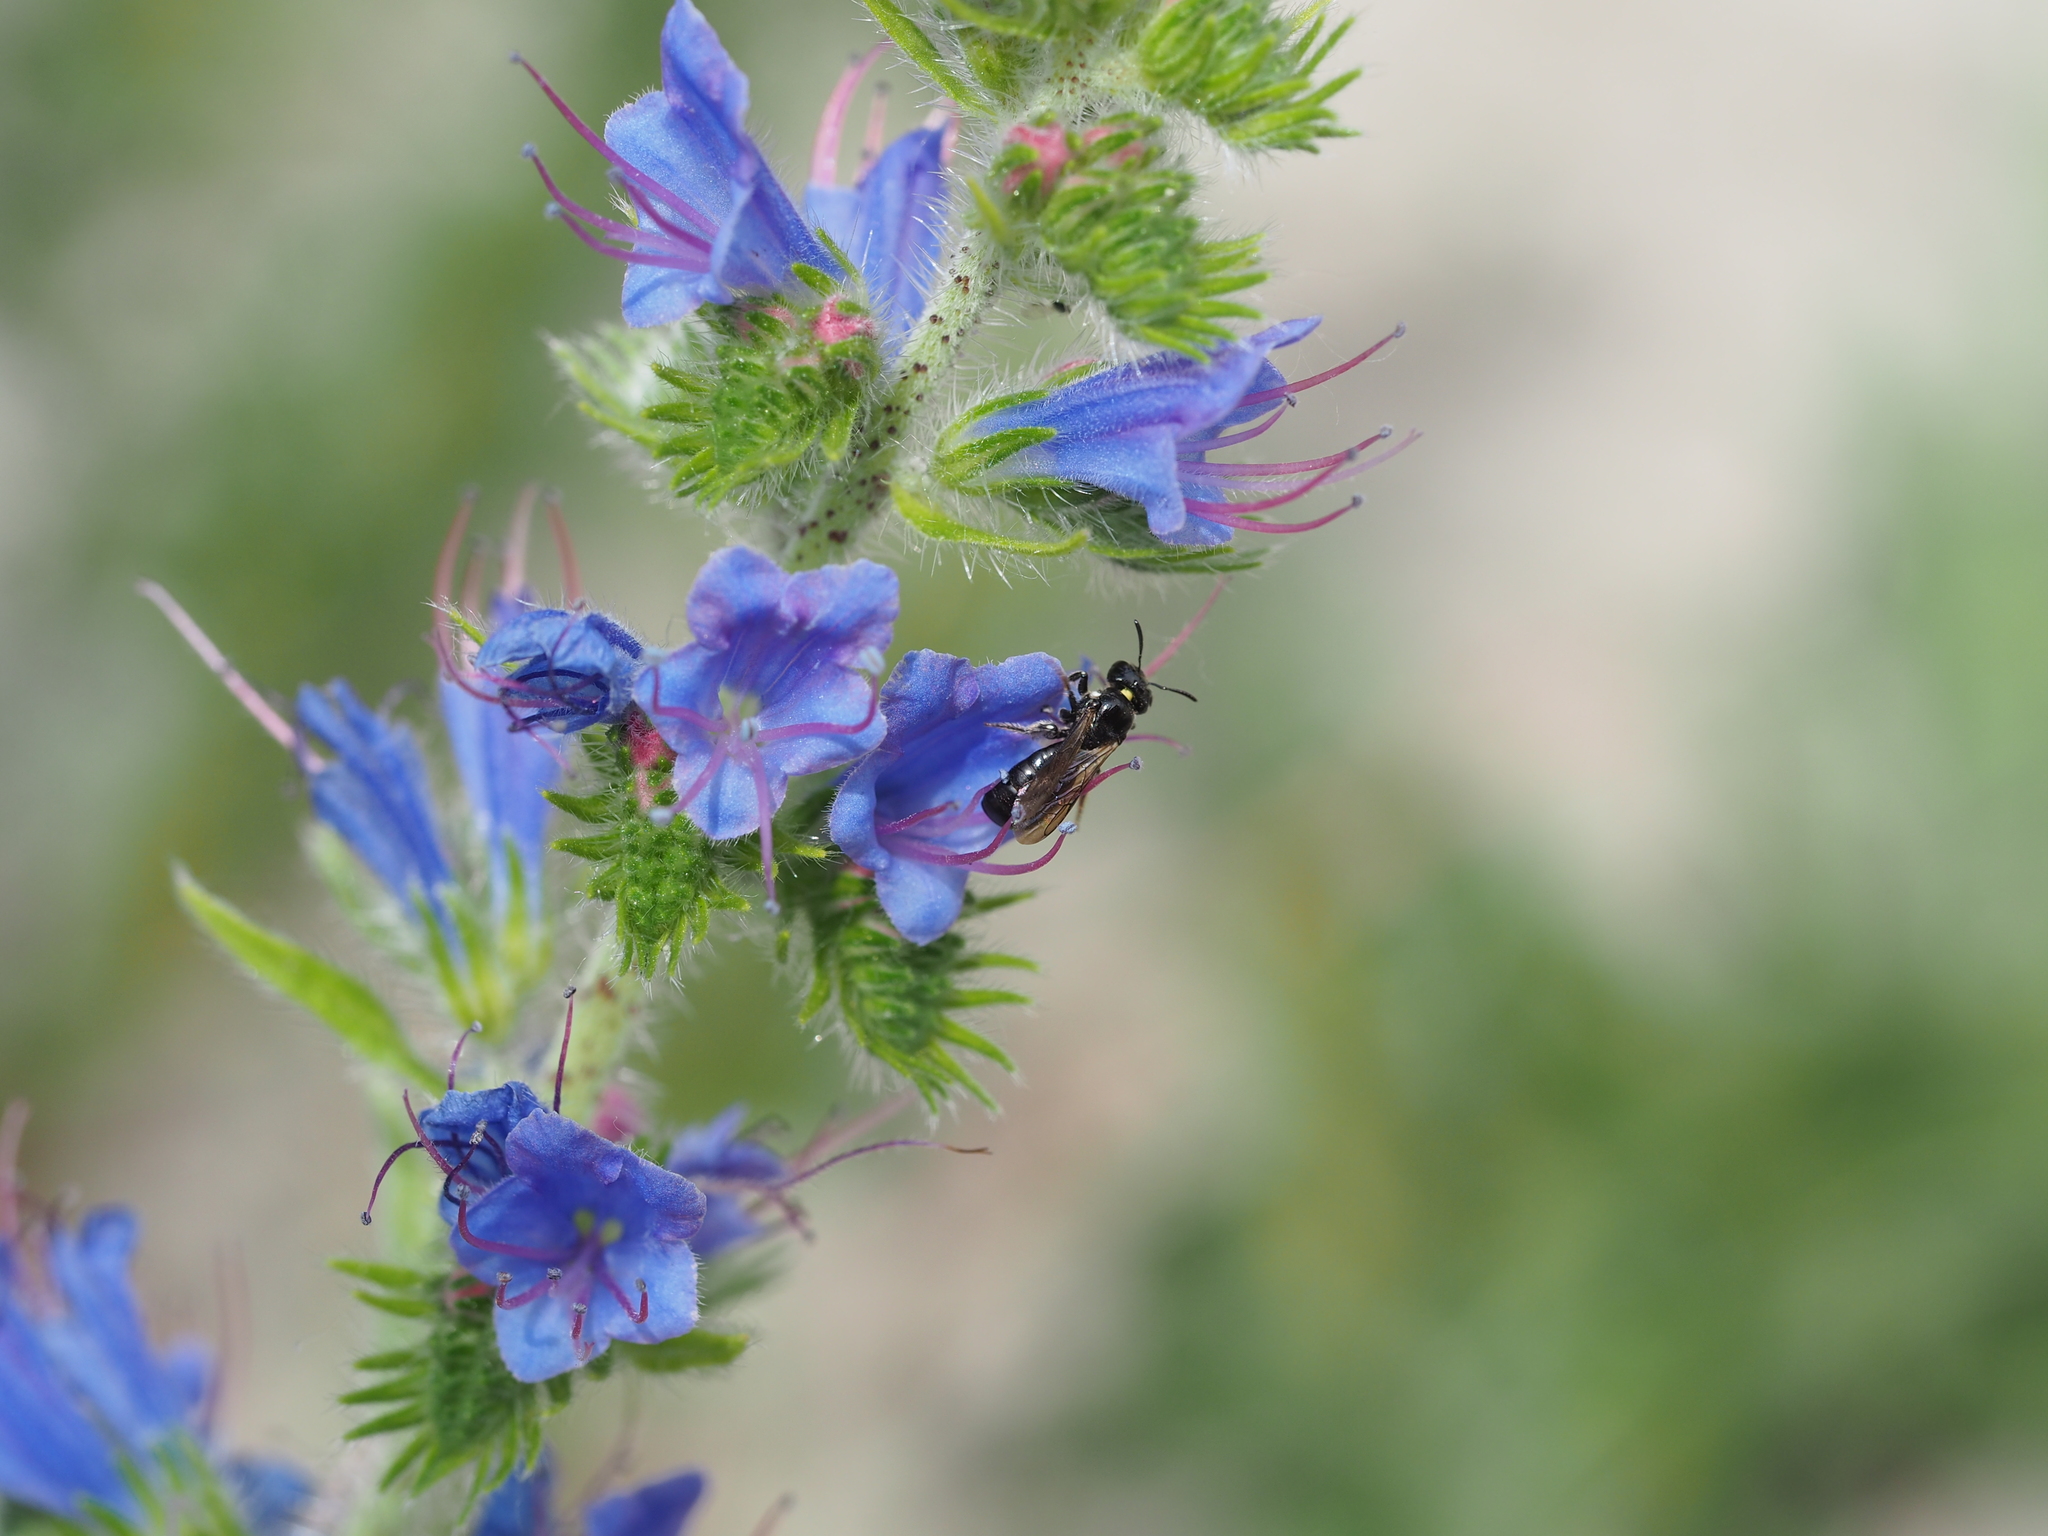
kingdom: Animalia
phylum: Arthropoda
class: Insecta
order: Hymenoptera
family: Apidae
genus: Ceratina
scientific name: Ceratina cucurbitina
